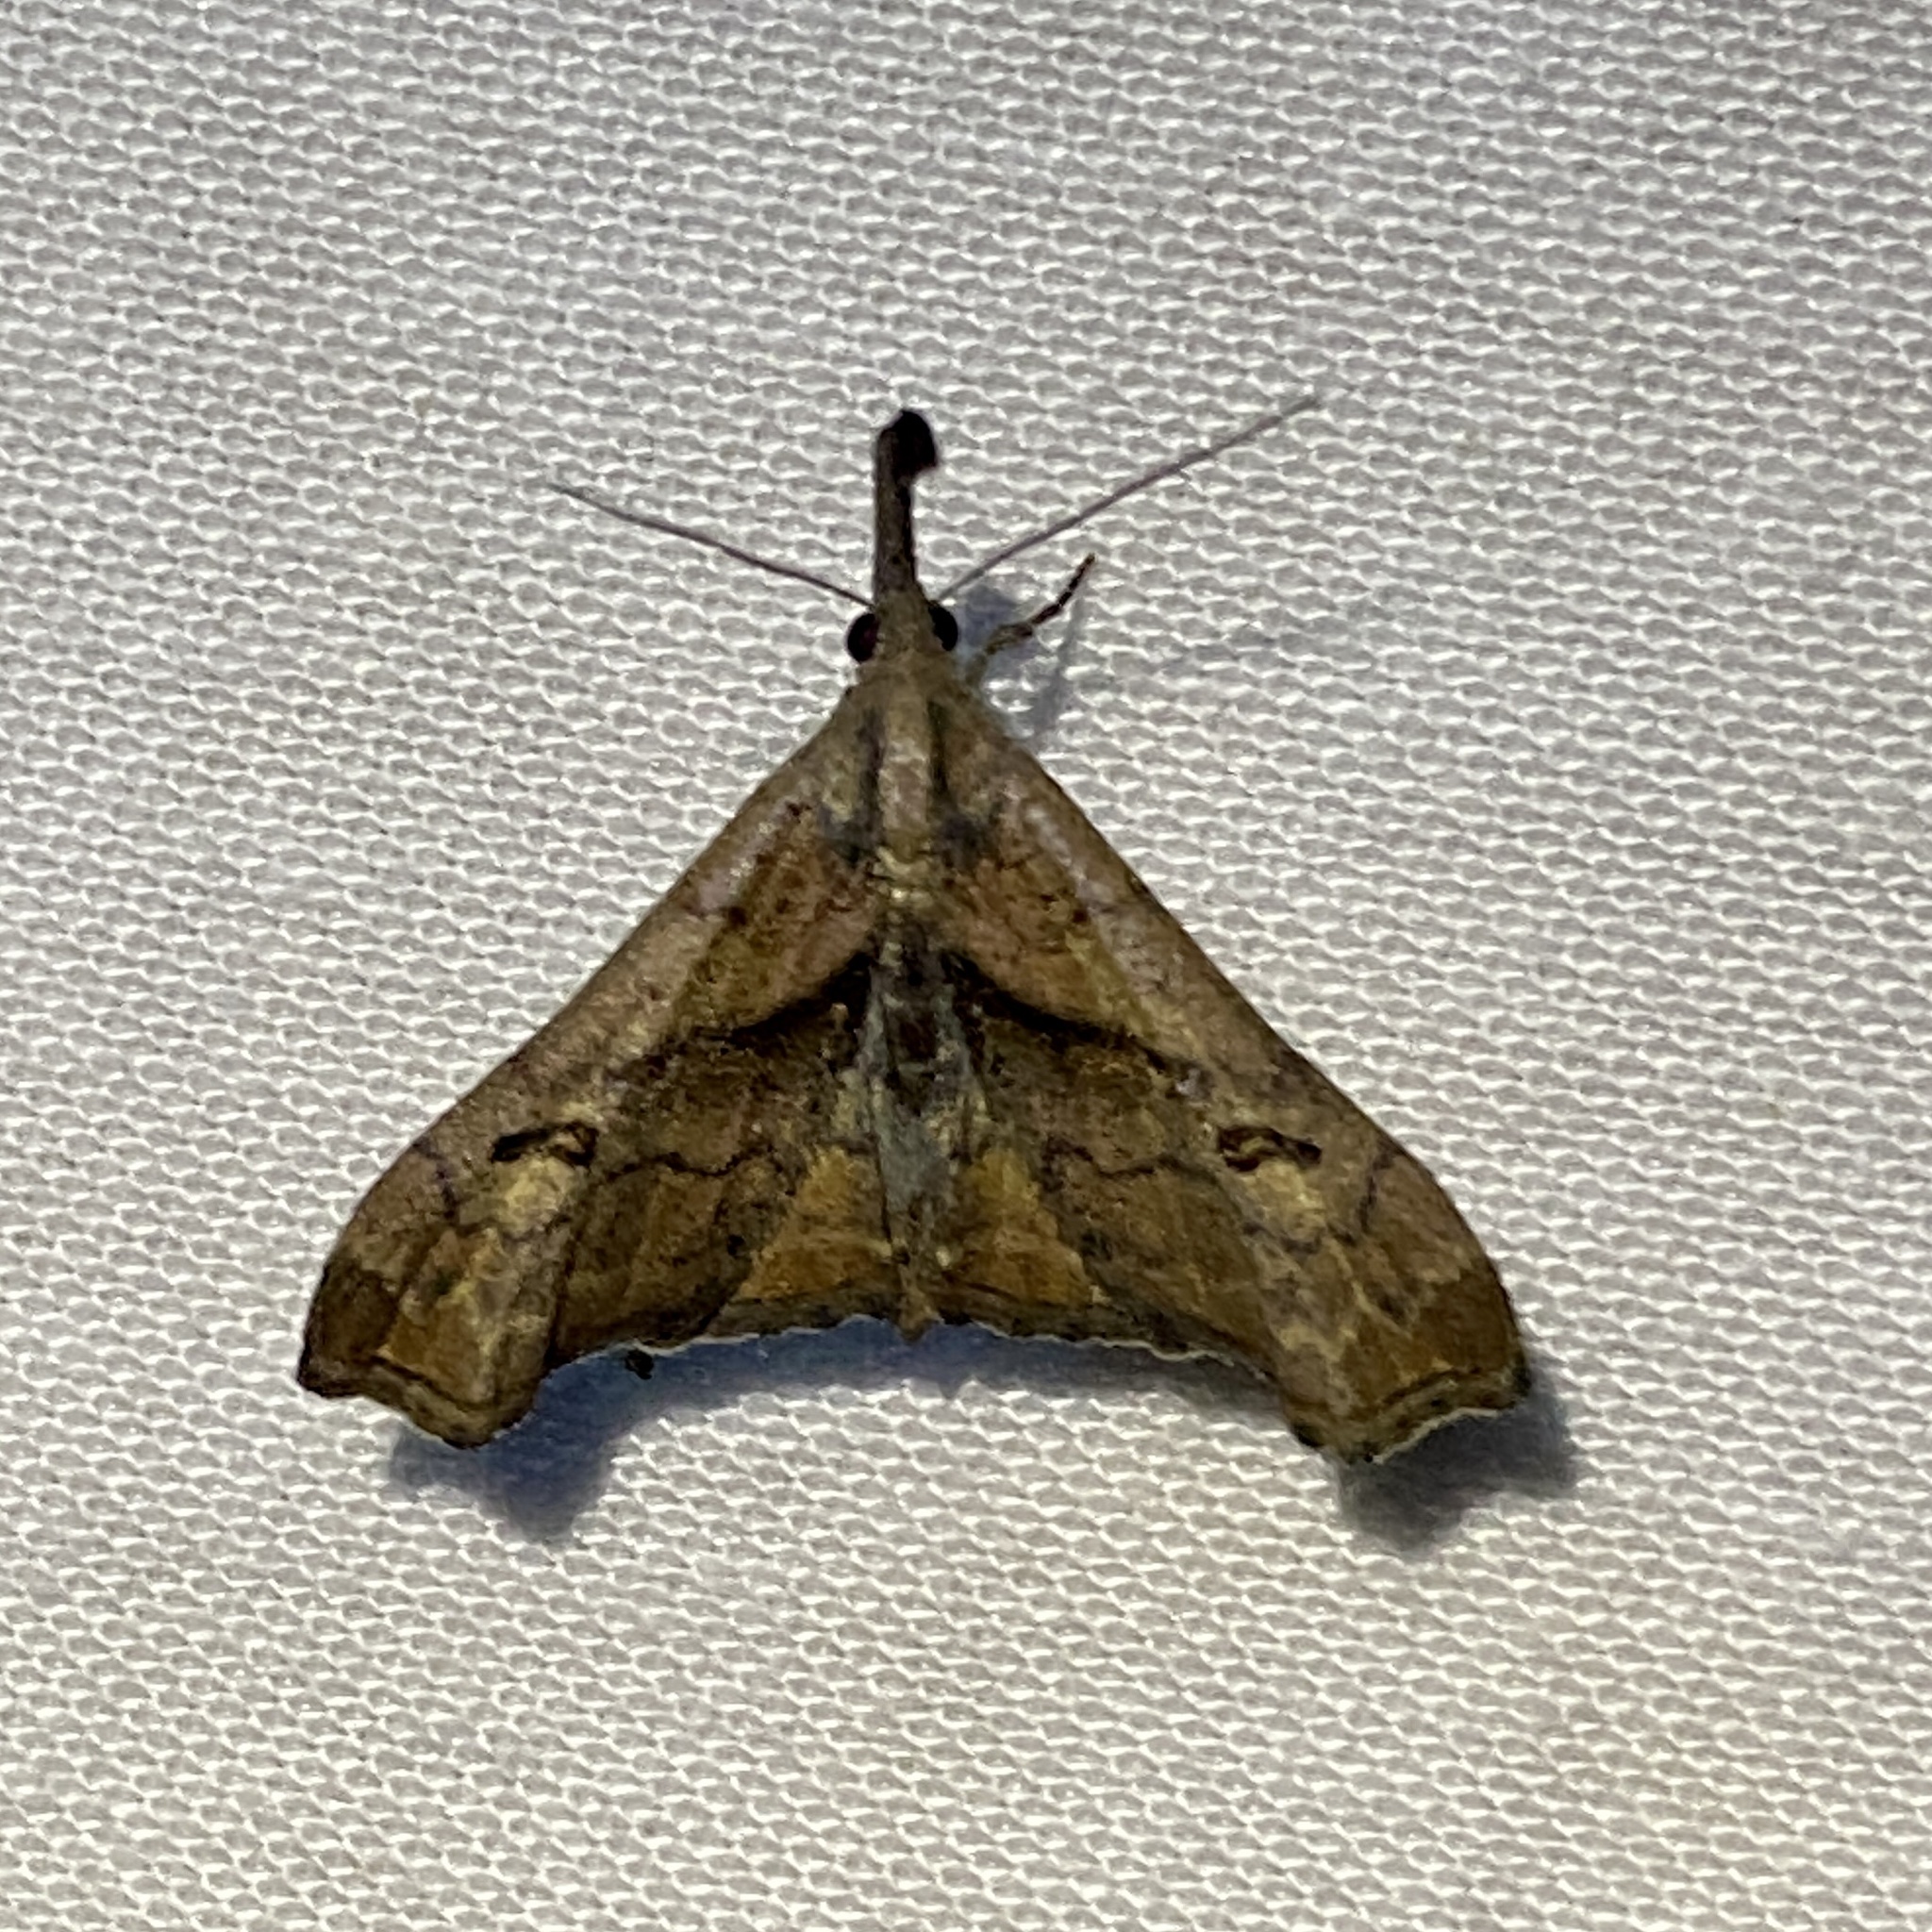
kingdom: Animalia
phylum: Arthropoda
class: Insecta
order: Lepidoptera
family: Erebidae
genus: Palthis
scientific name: Palthis angulalis
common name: Dark-spotted palthis moth
